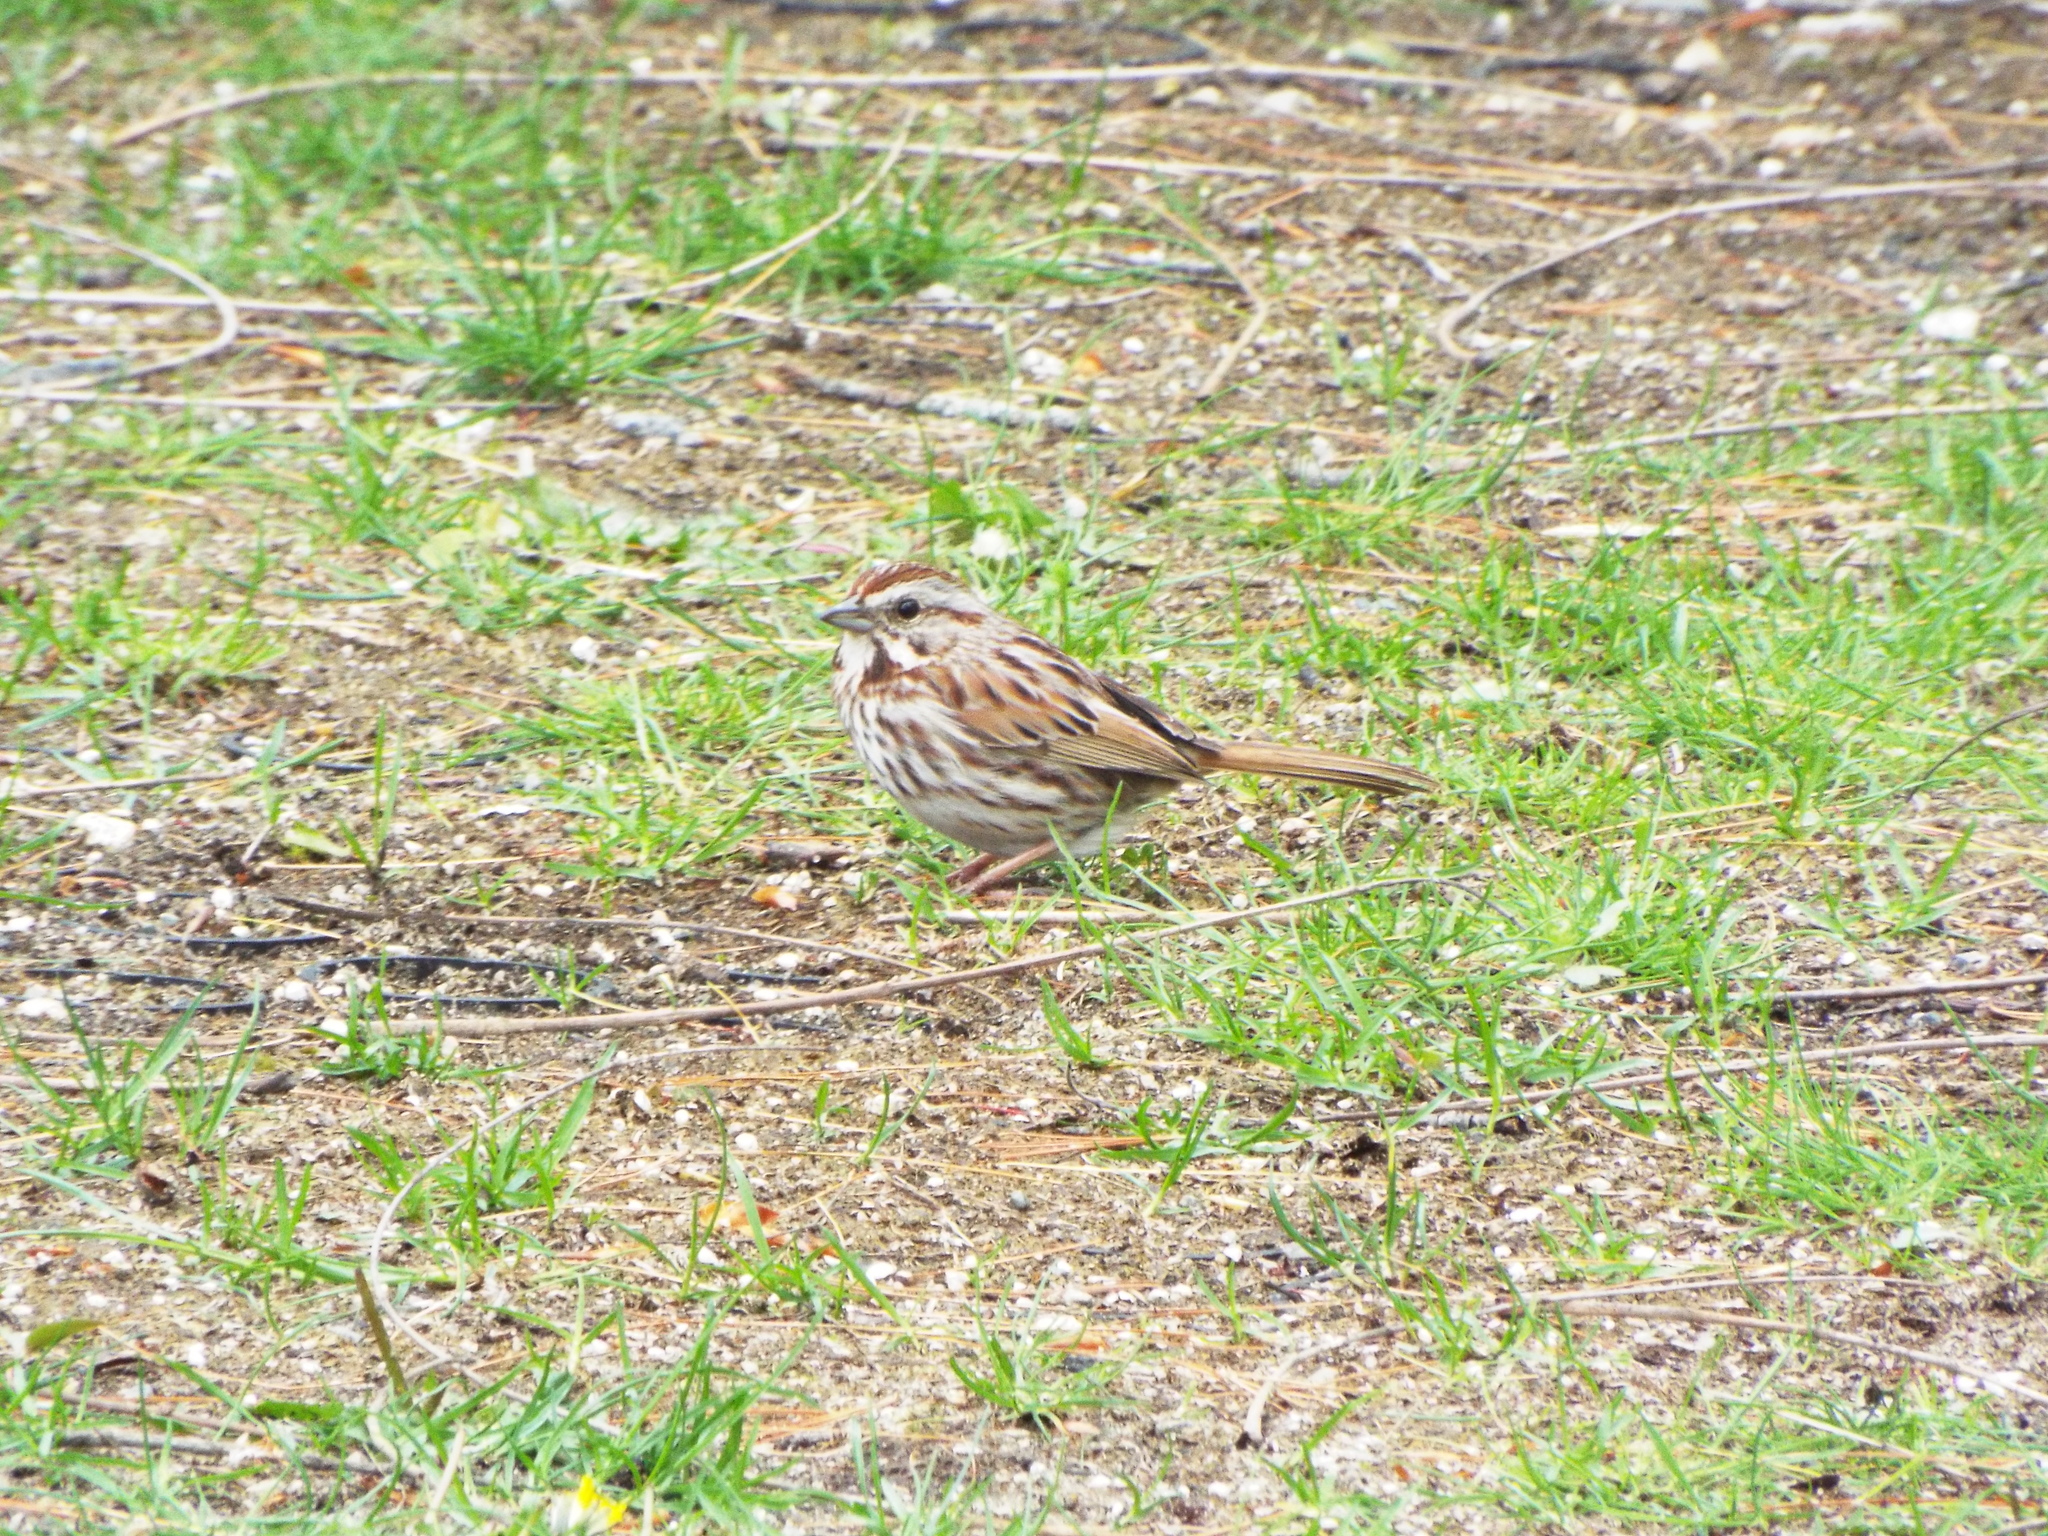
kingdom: Animalia
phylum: Chordata
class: Aves
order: Passeriformes
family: Passerellidae
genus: Melospiza
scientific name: Melospiza melodia
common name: Song sparrow
